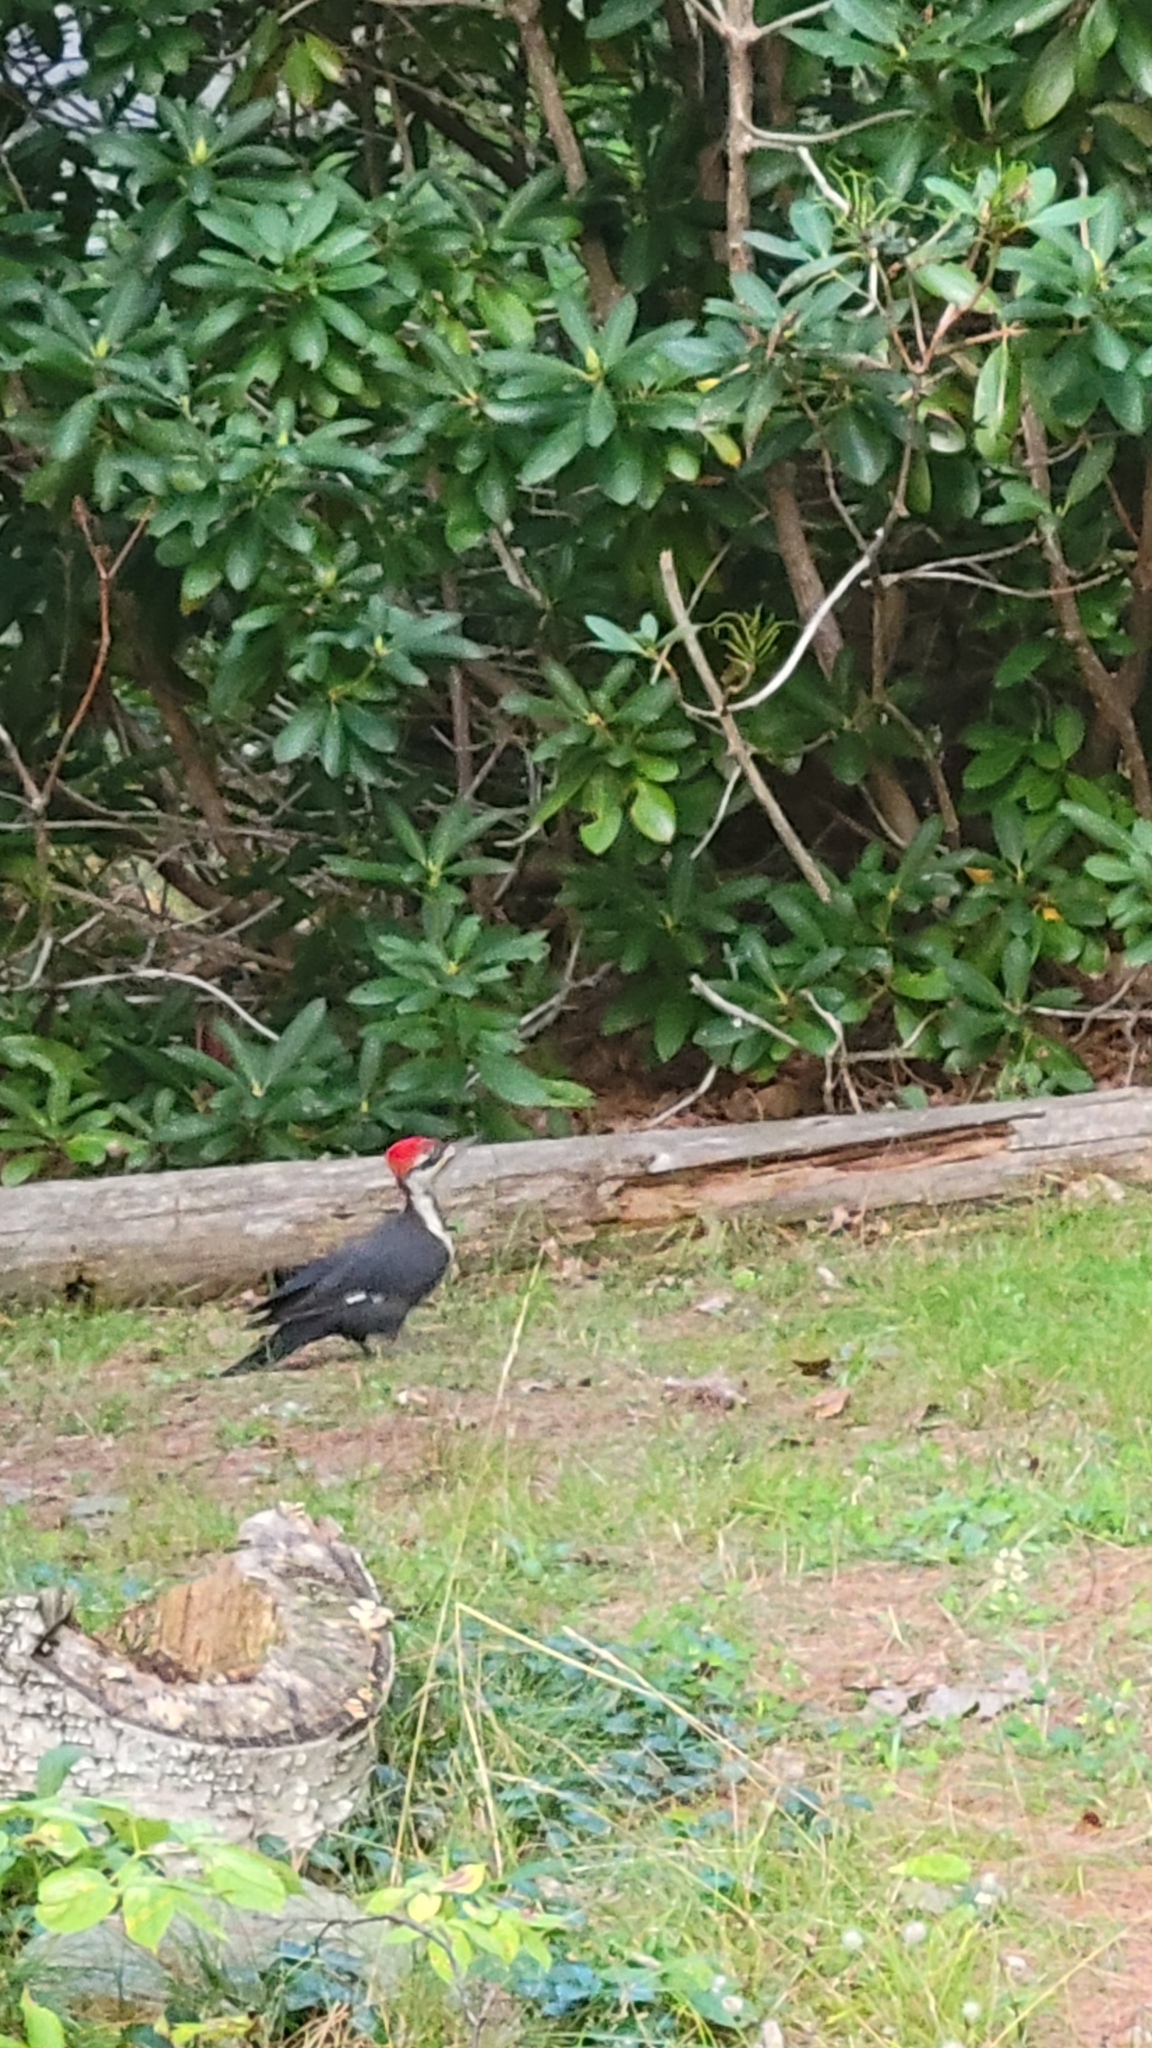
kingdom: Animalia
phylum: Chordata
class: Aves
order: Piciformes
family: Picidae
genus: Dryocopus
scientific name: Dryocopus pileatus
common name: Pileated woodpecker
